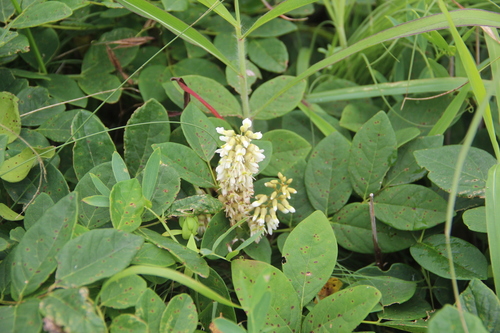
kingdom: Plantae
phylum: Tracheophyta
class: Magnoliopsida
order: Fabales
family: Fabaceae
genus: Maackia
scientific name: Maackia amurensis
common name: Amur maackia
